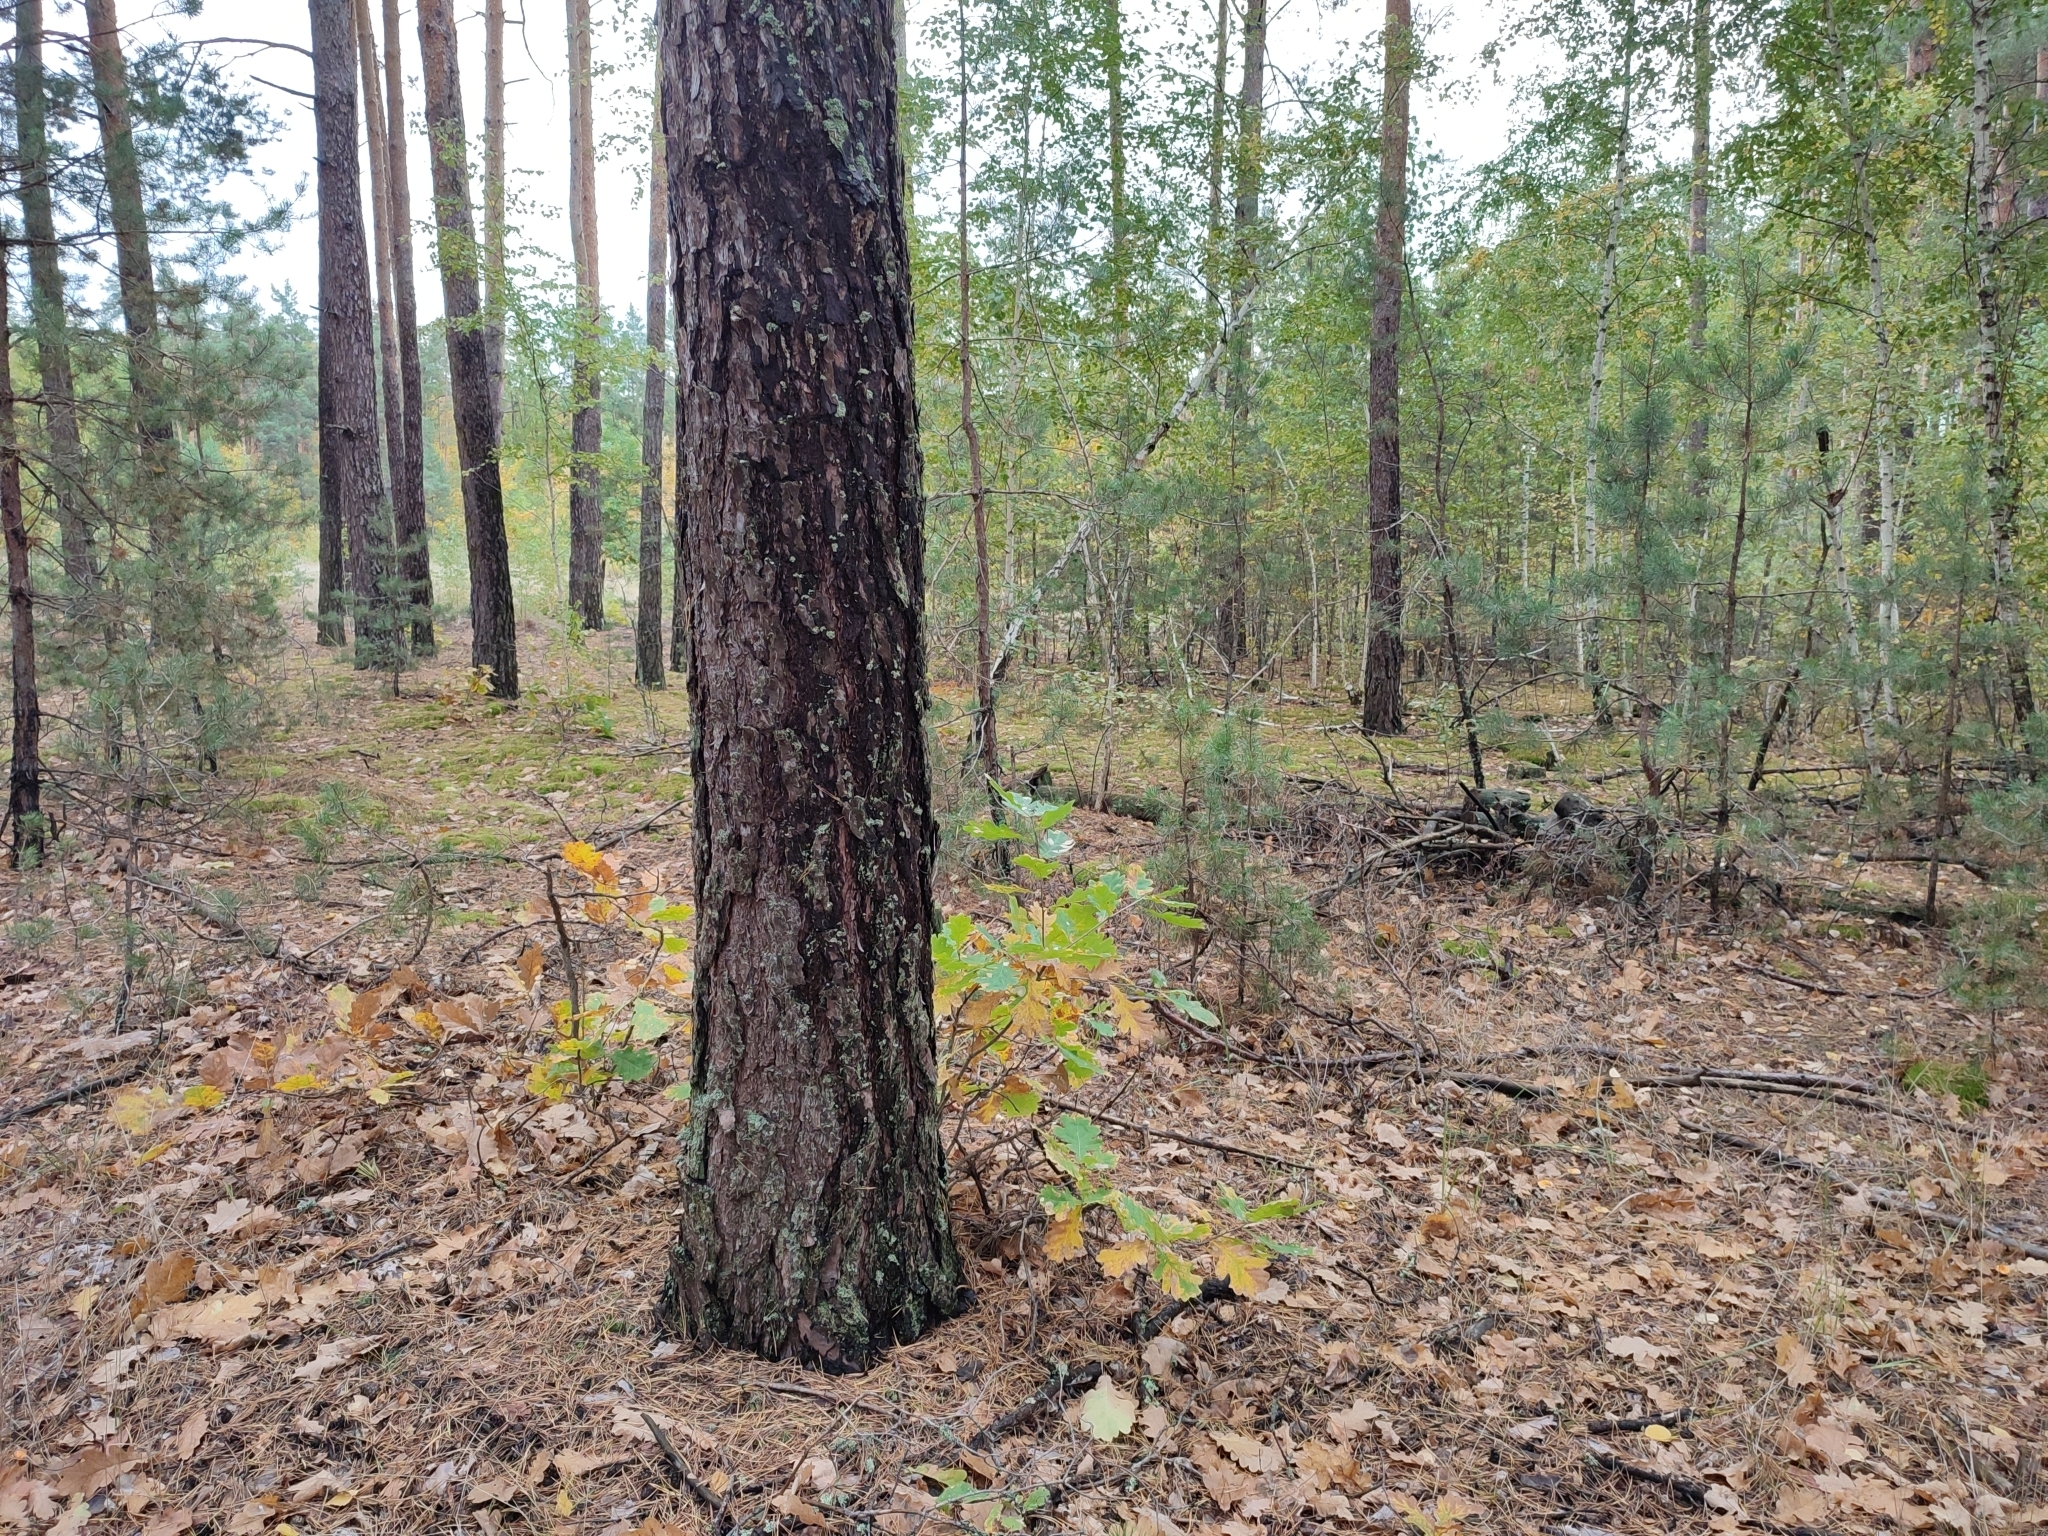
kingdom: Plantae
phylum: Tracheophyta
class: Magnoliopsida
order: Fagales
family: Fagaceae
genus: Quercus
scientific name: Quercus robur
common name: Pedunculate oak
